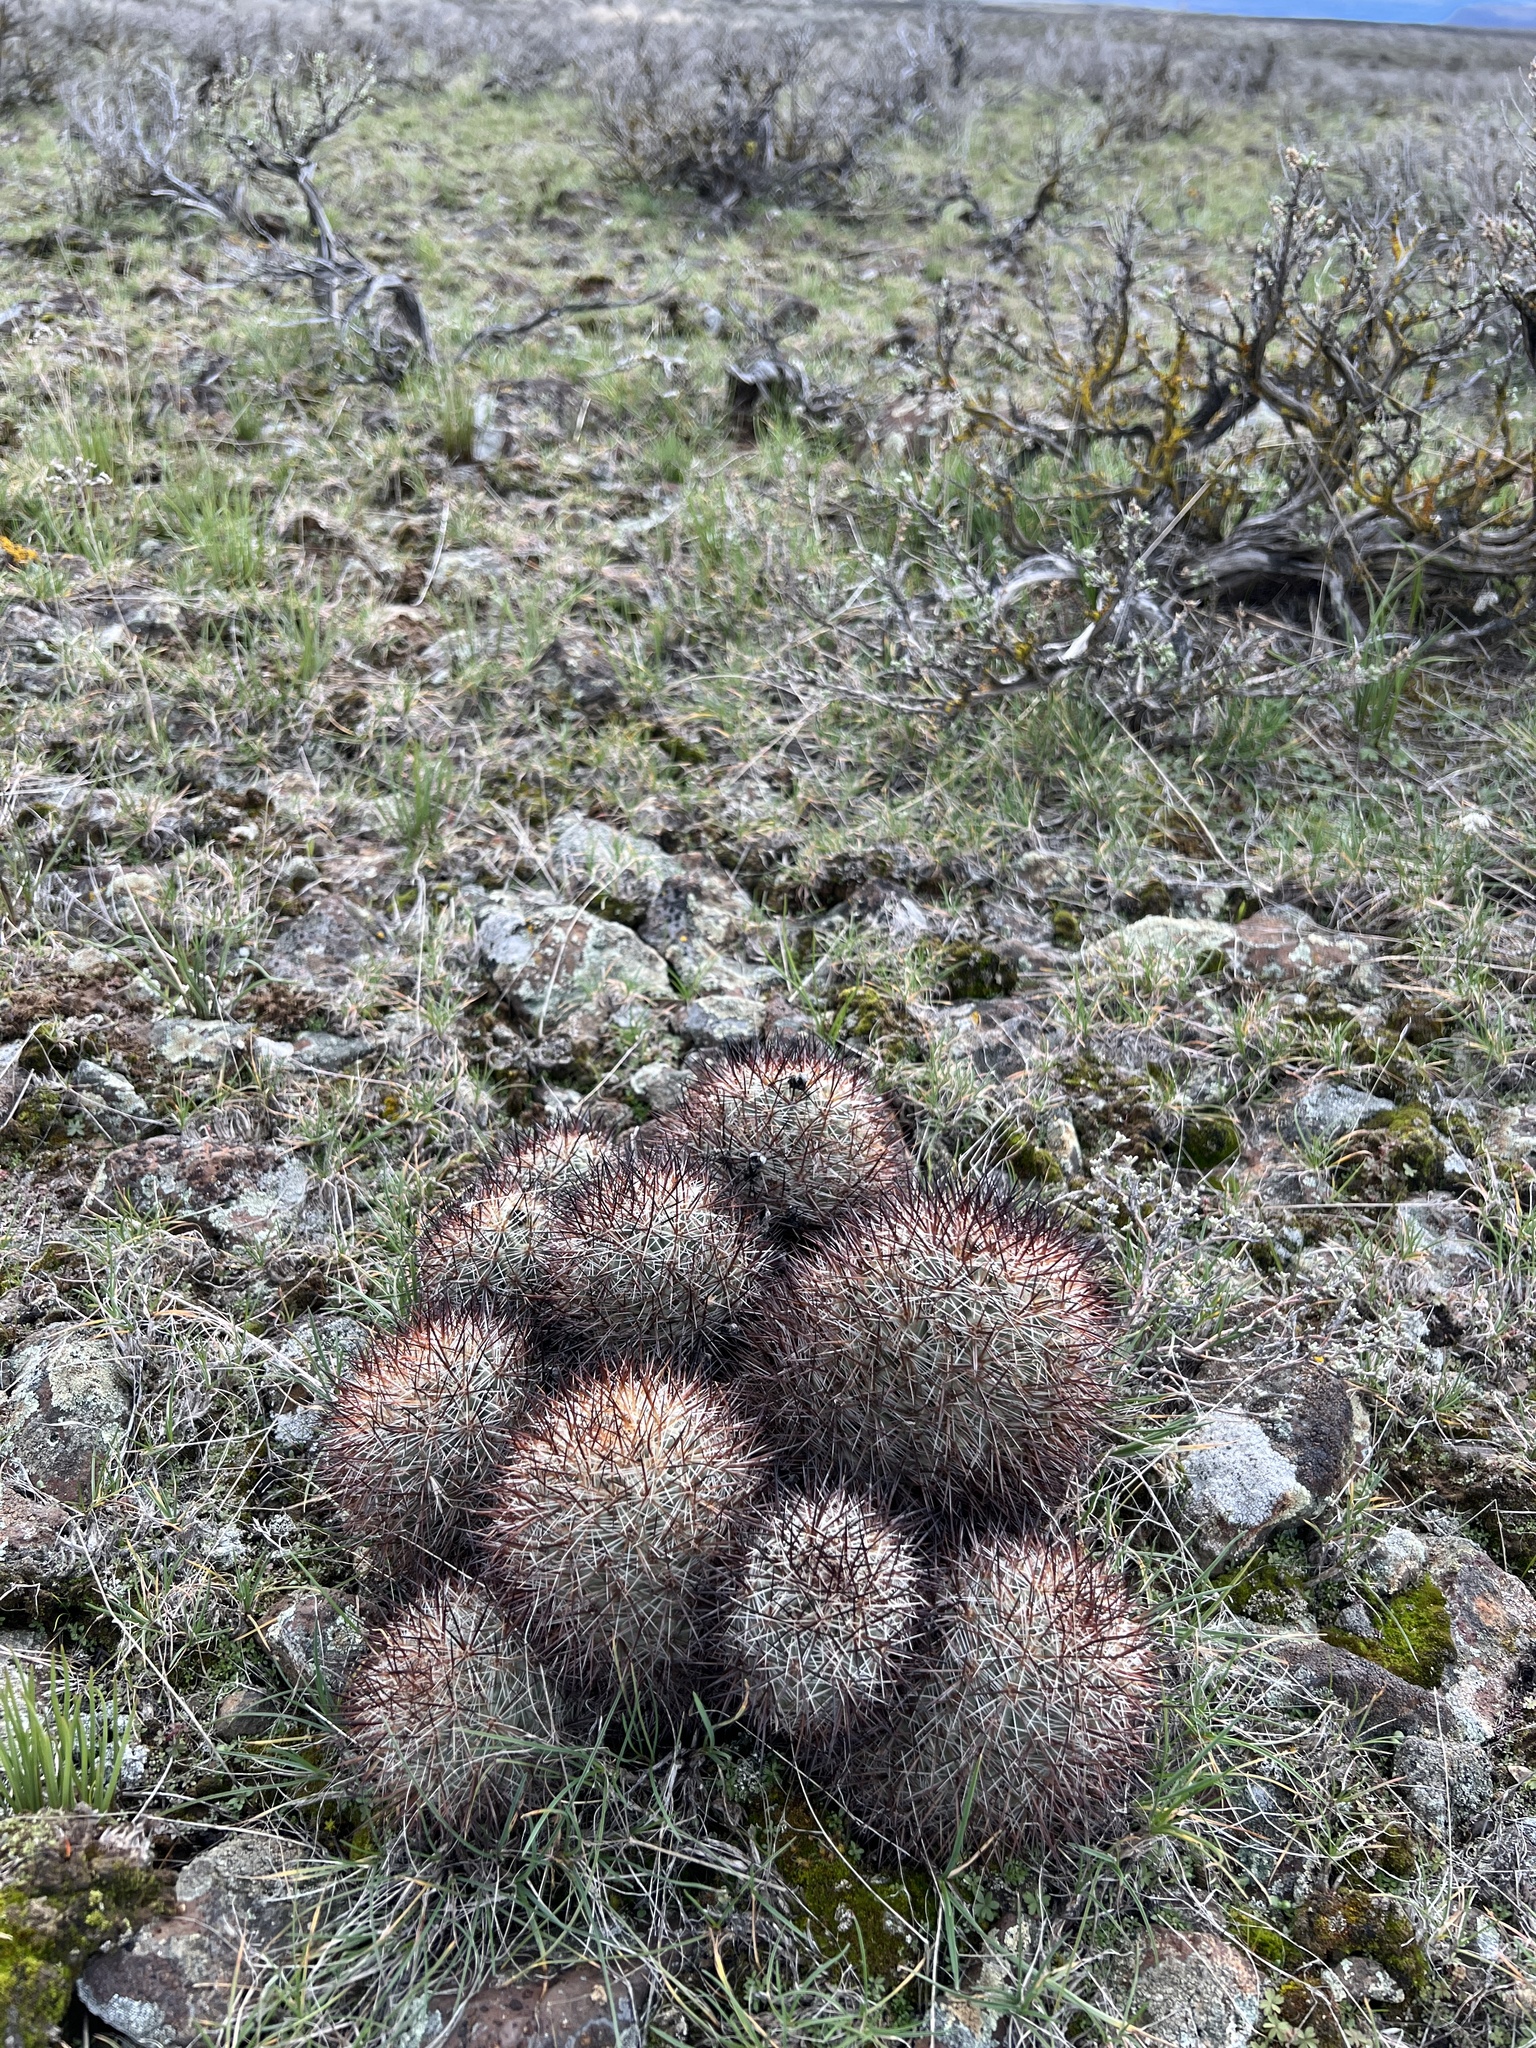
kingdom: Plantae
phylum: Tracheophyta
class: Magnoliopsida
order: Caryophyllales
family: Cactaceae
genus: Pediocactus
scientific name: Pediocactus nigrispinus
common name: Simpson's hedgehog cactus
